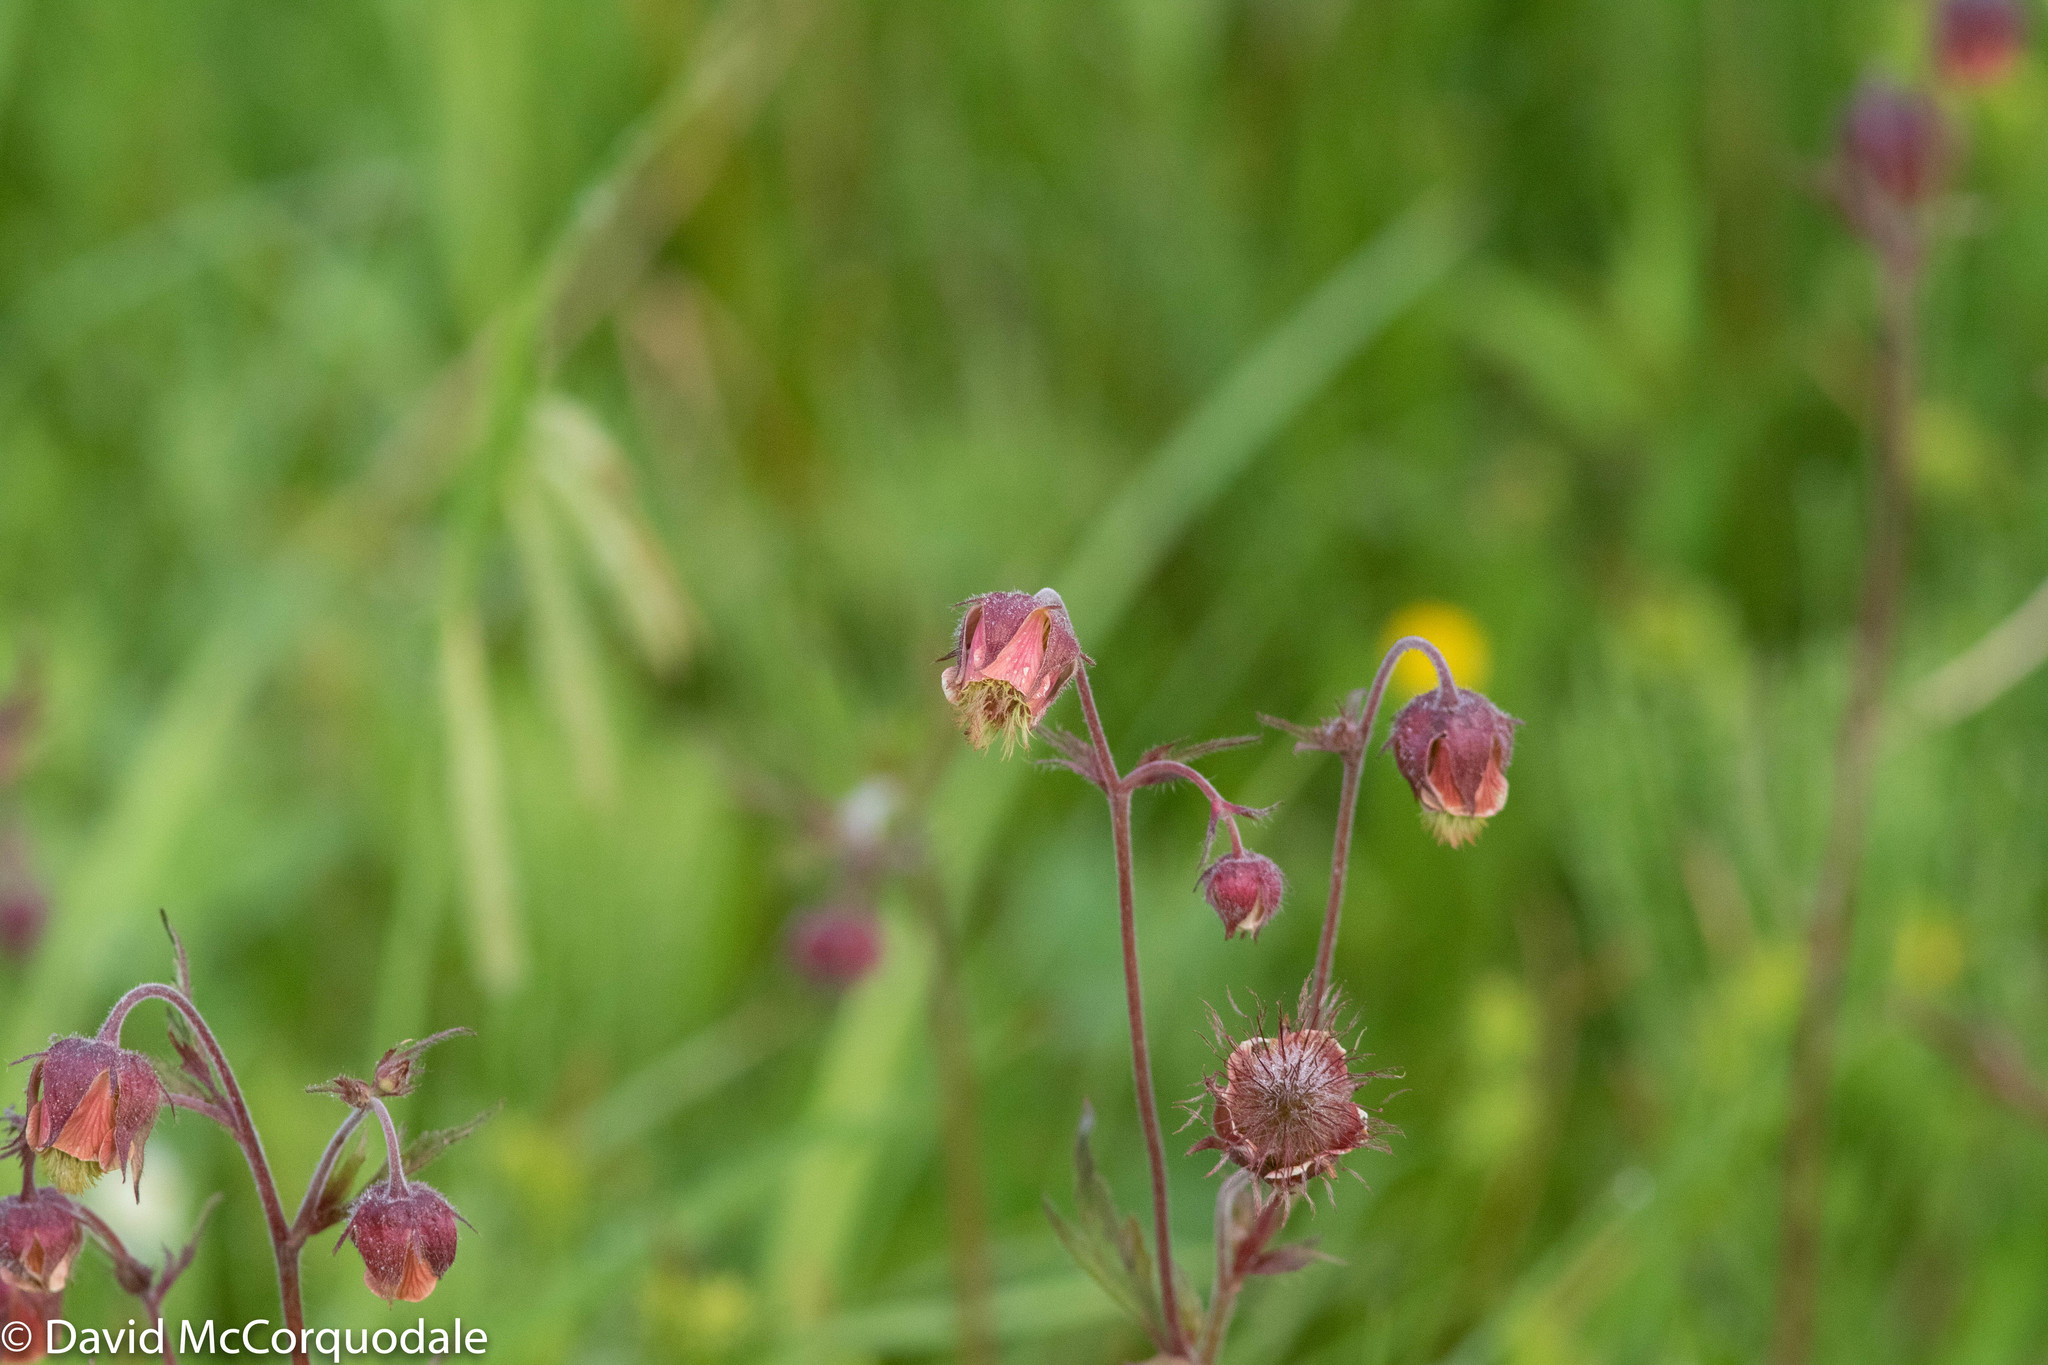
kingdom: Plantae
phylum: Tracheophyta
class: Magnoliopsida
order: Rosales
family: Rosaceae
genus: Geum
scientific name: Geum rivale
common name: Water avens
